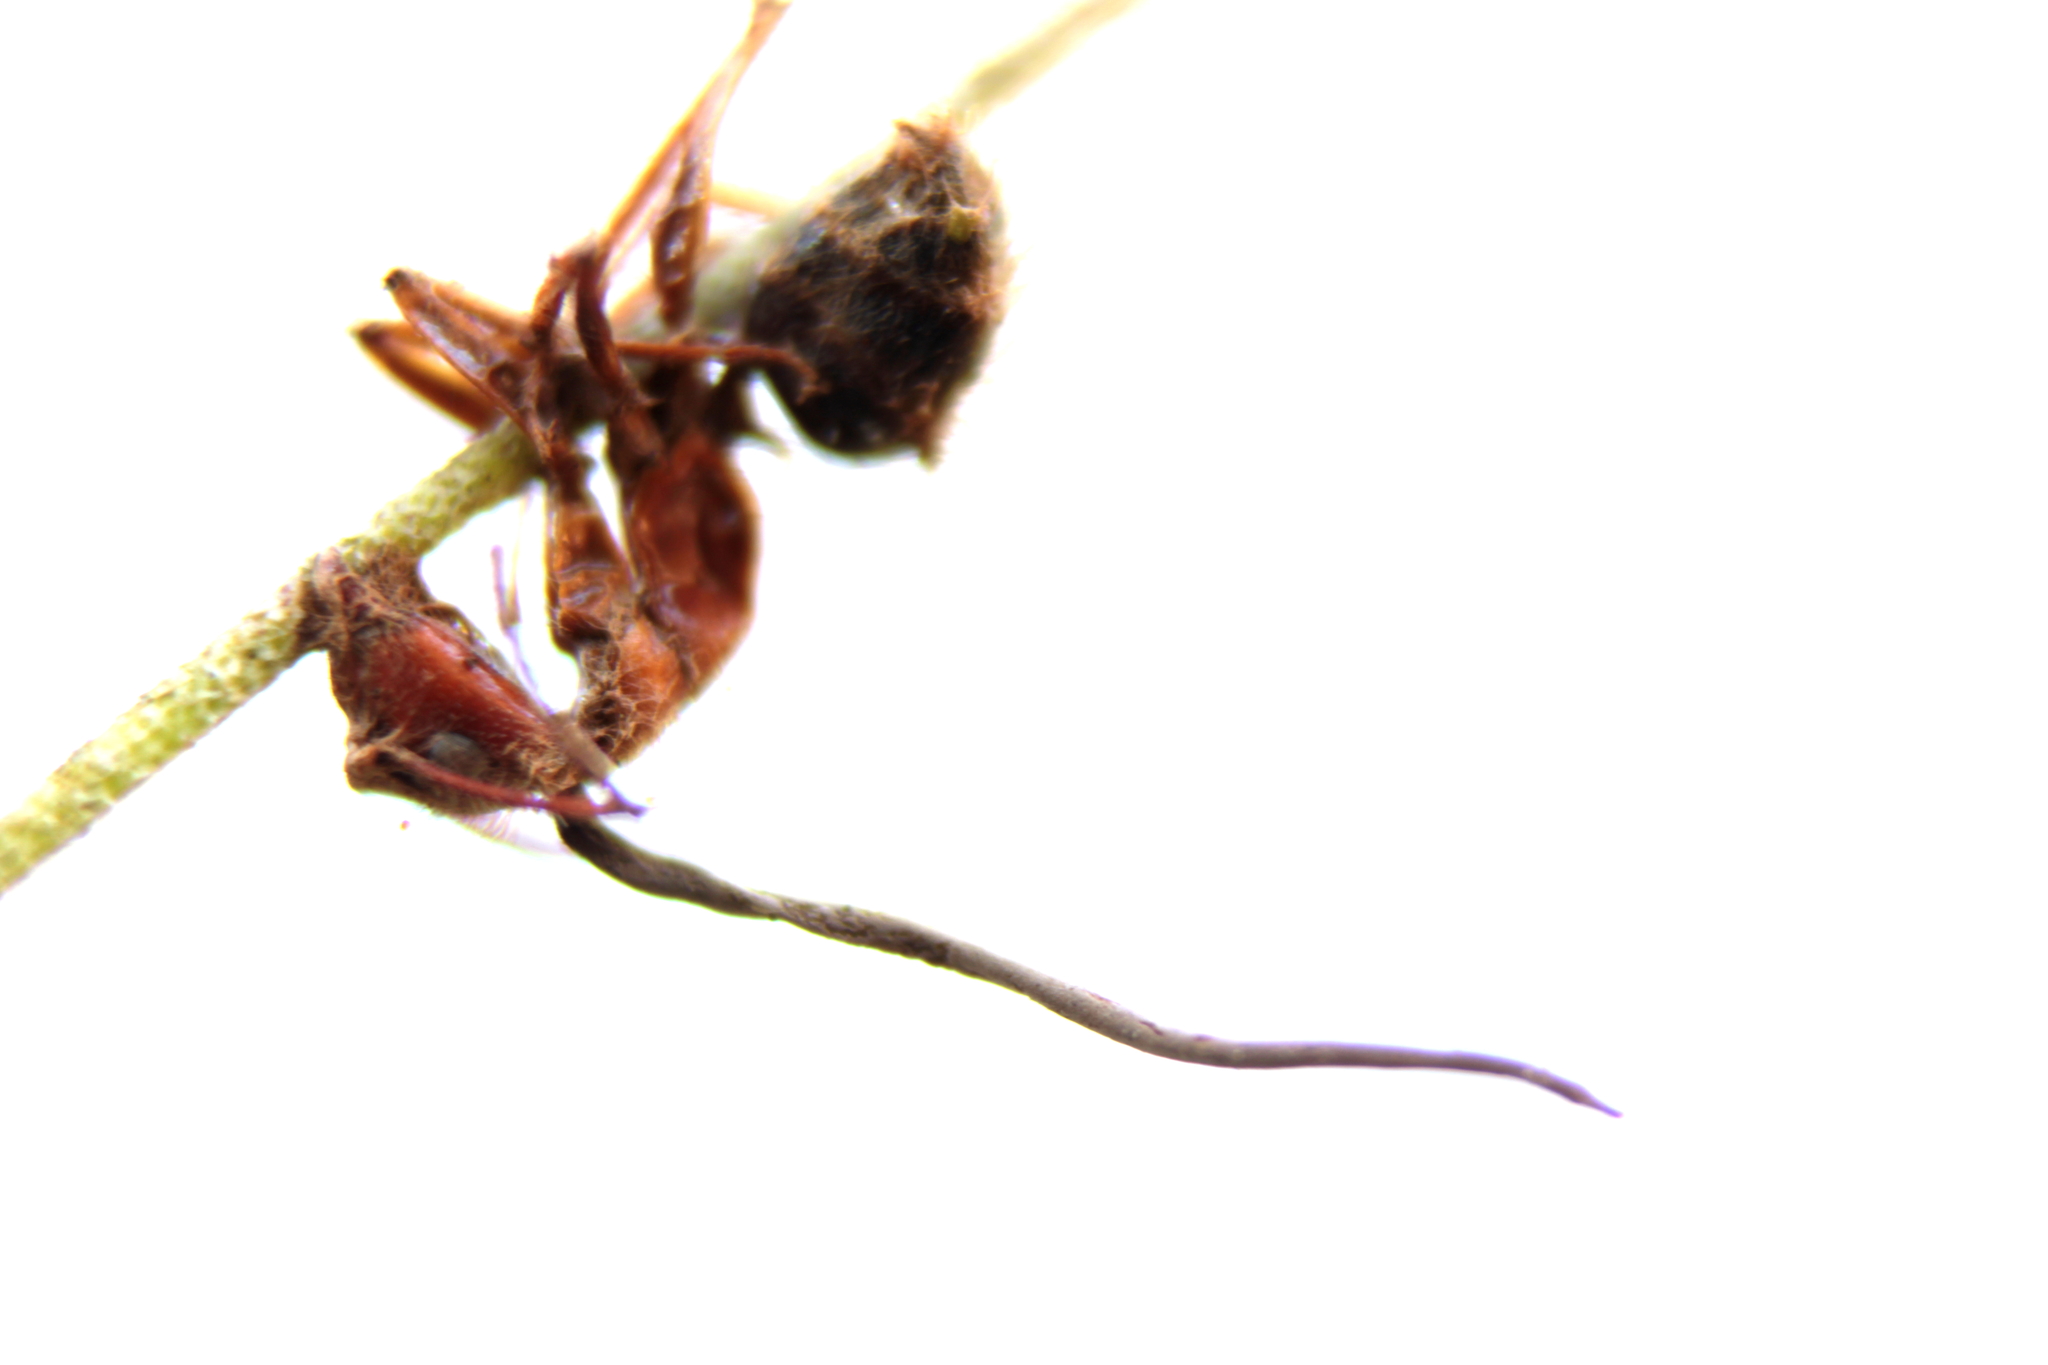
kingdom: Fungi
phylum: Ascomycota
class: Sordariomycetes
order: Hypocreales
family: Ophiocordycipitaceae
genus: Ophiocordyceps
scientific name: Ophiocordyceps camponoti-floridani
